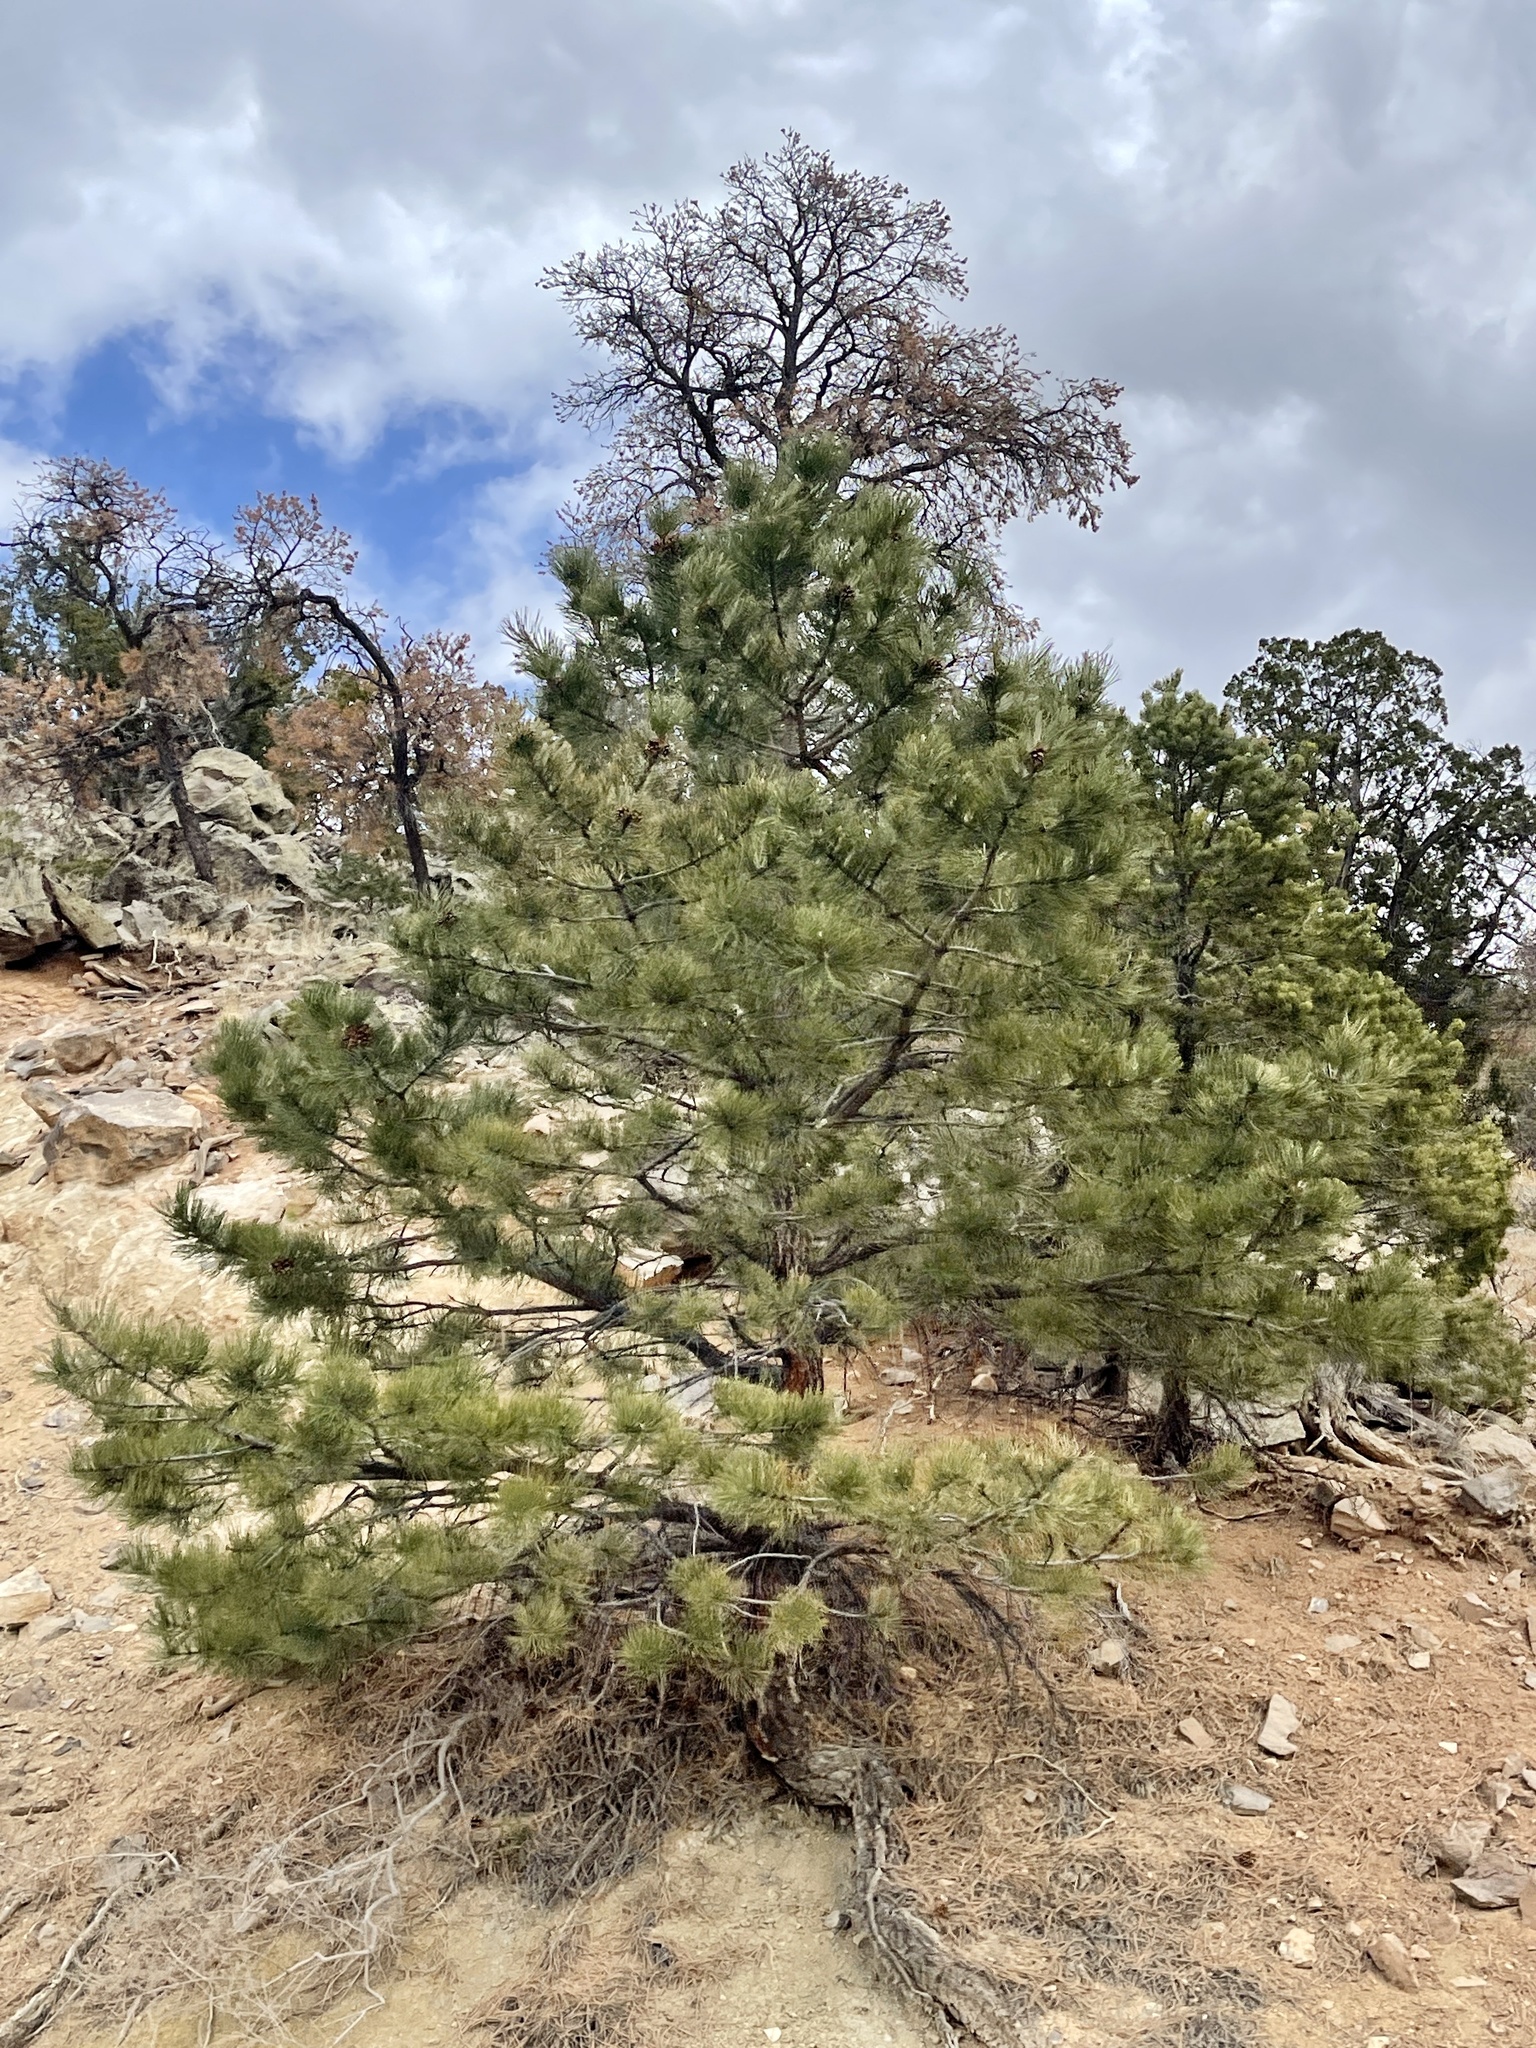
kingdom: Plantae
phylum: Tracheophyta
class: Pinopsida
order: Pinales
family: Pinaceae
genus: Pinus
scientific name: Pinus ponderosa
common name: Western yellow-pine
